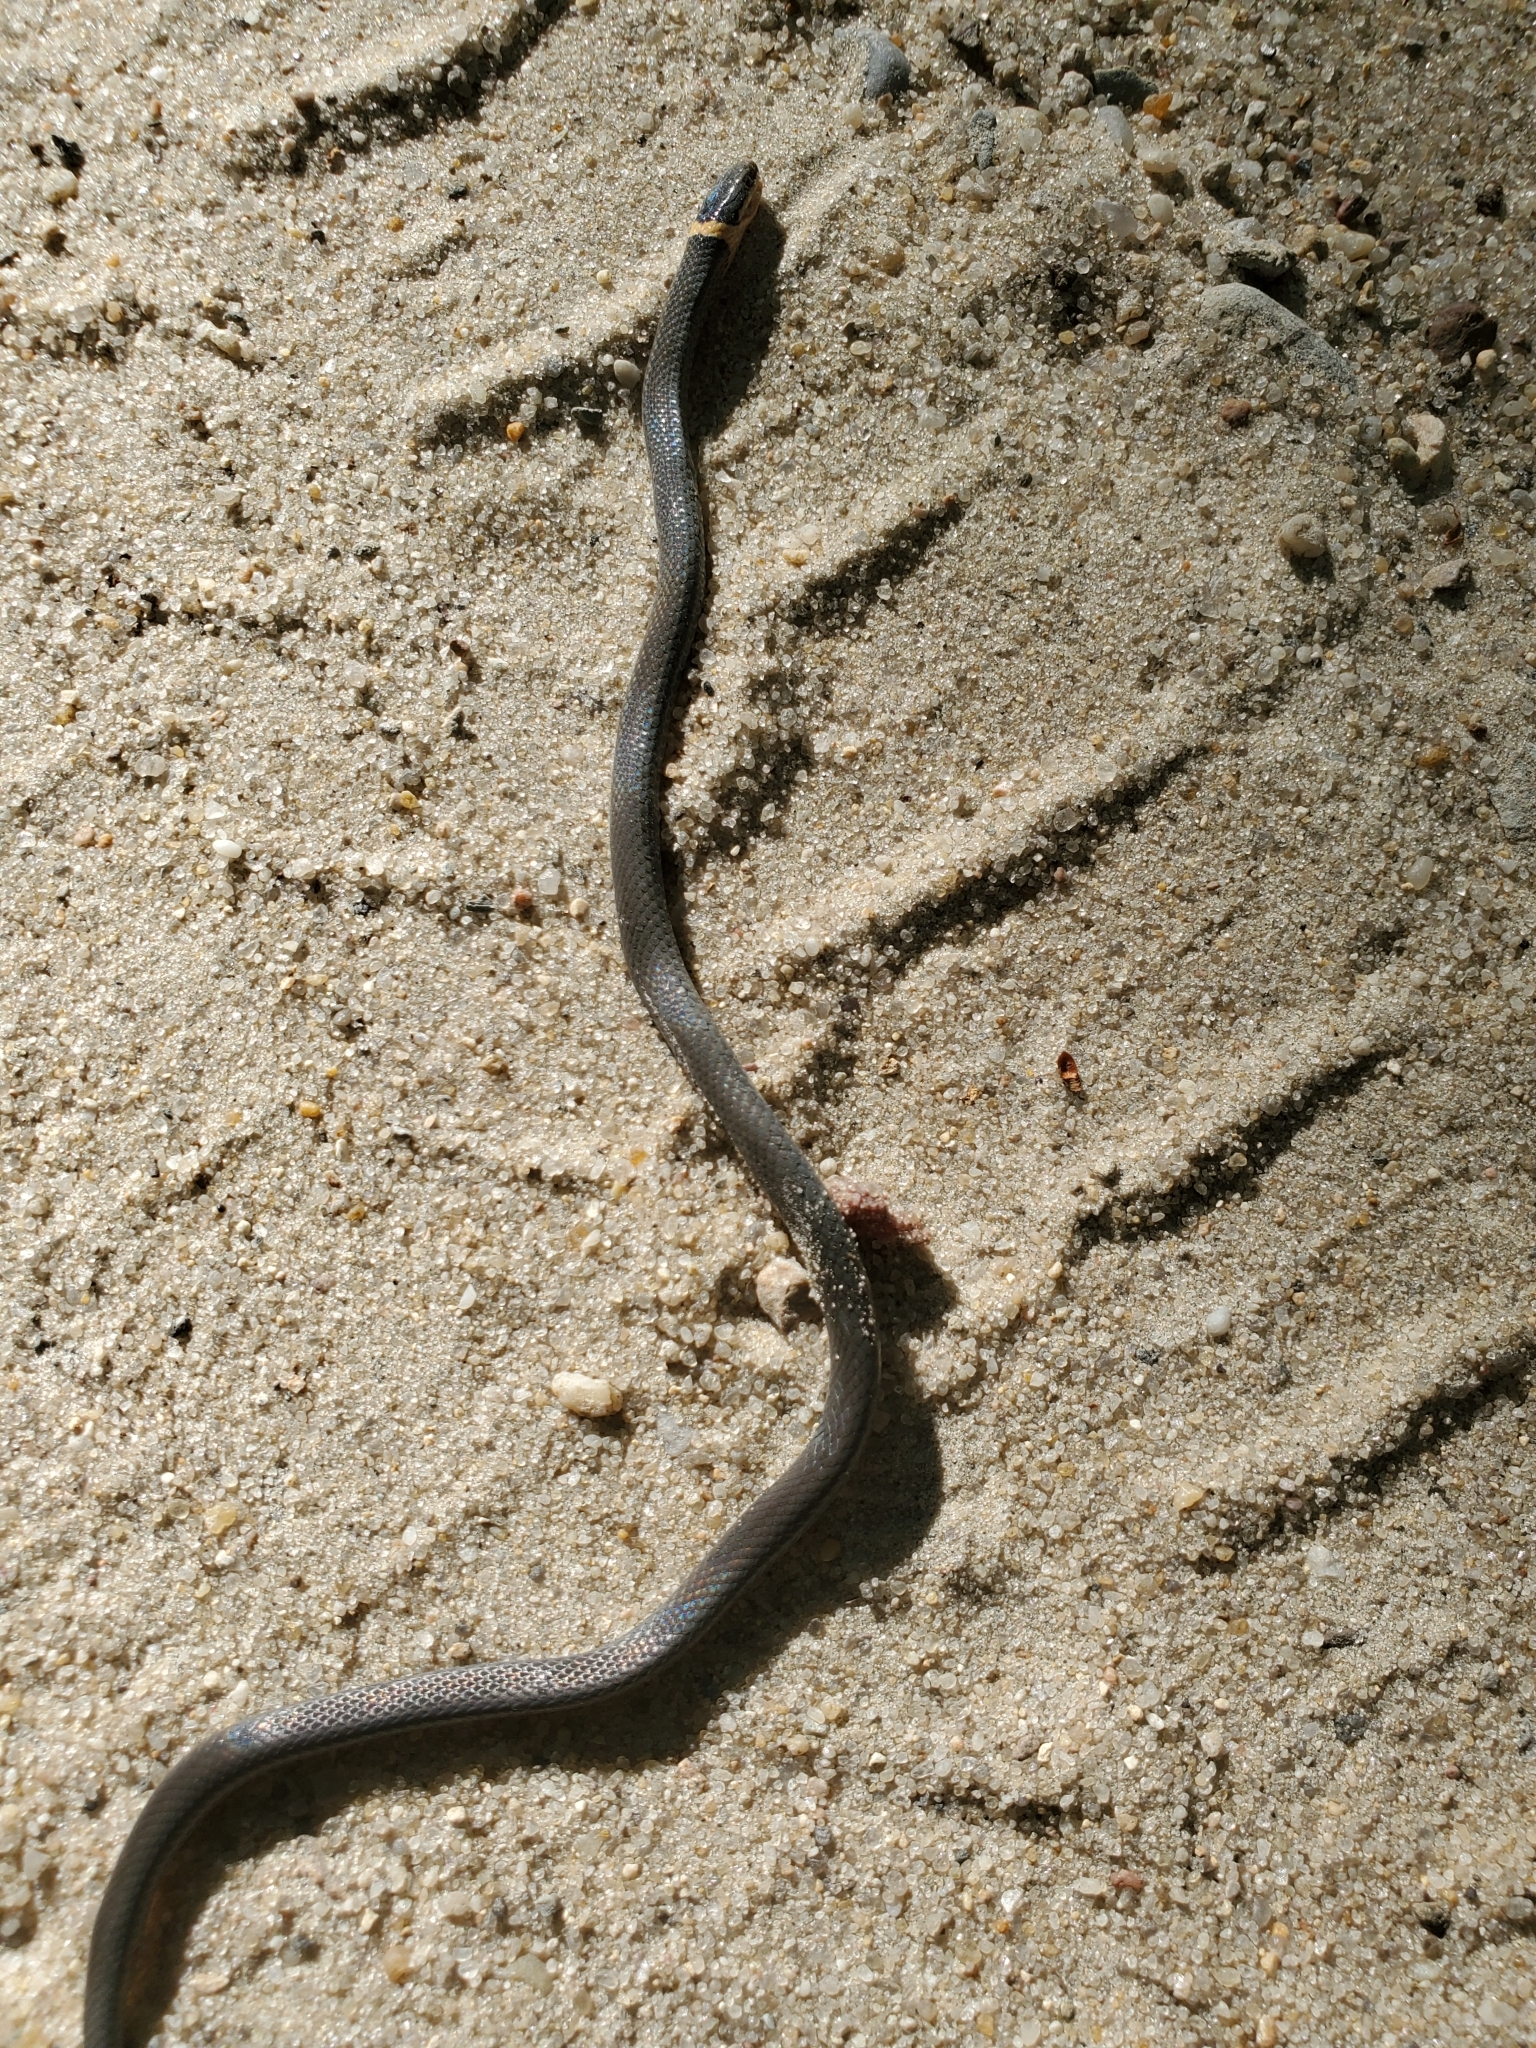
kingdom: Animalia
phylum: Chordata
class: Squamata
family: Colubridae
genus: Diadophis
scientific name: Diadophis punctatus
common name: Ringneck snake
